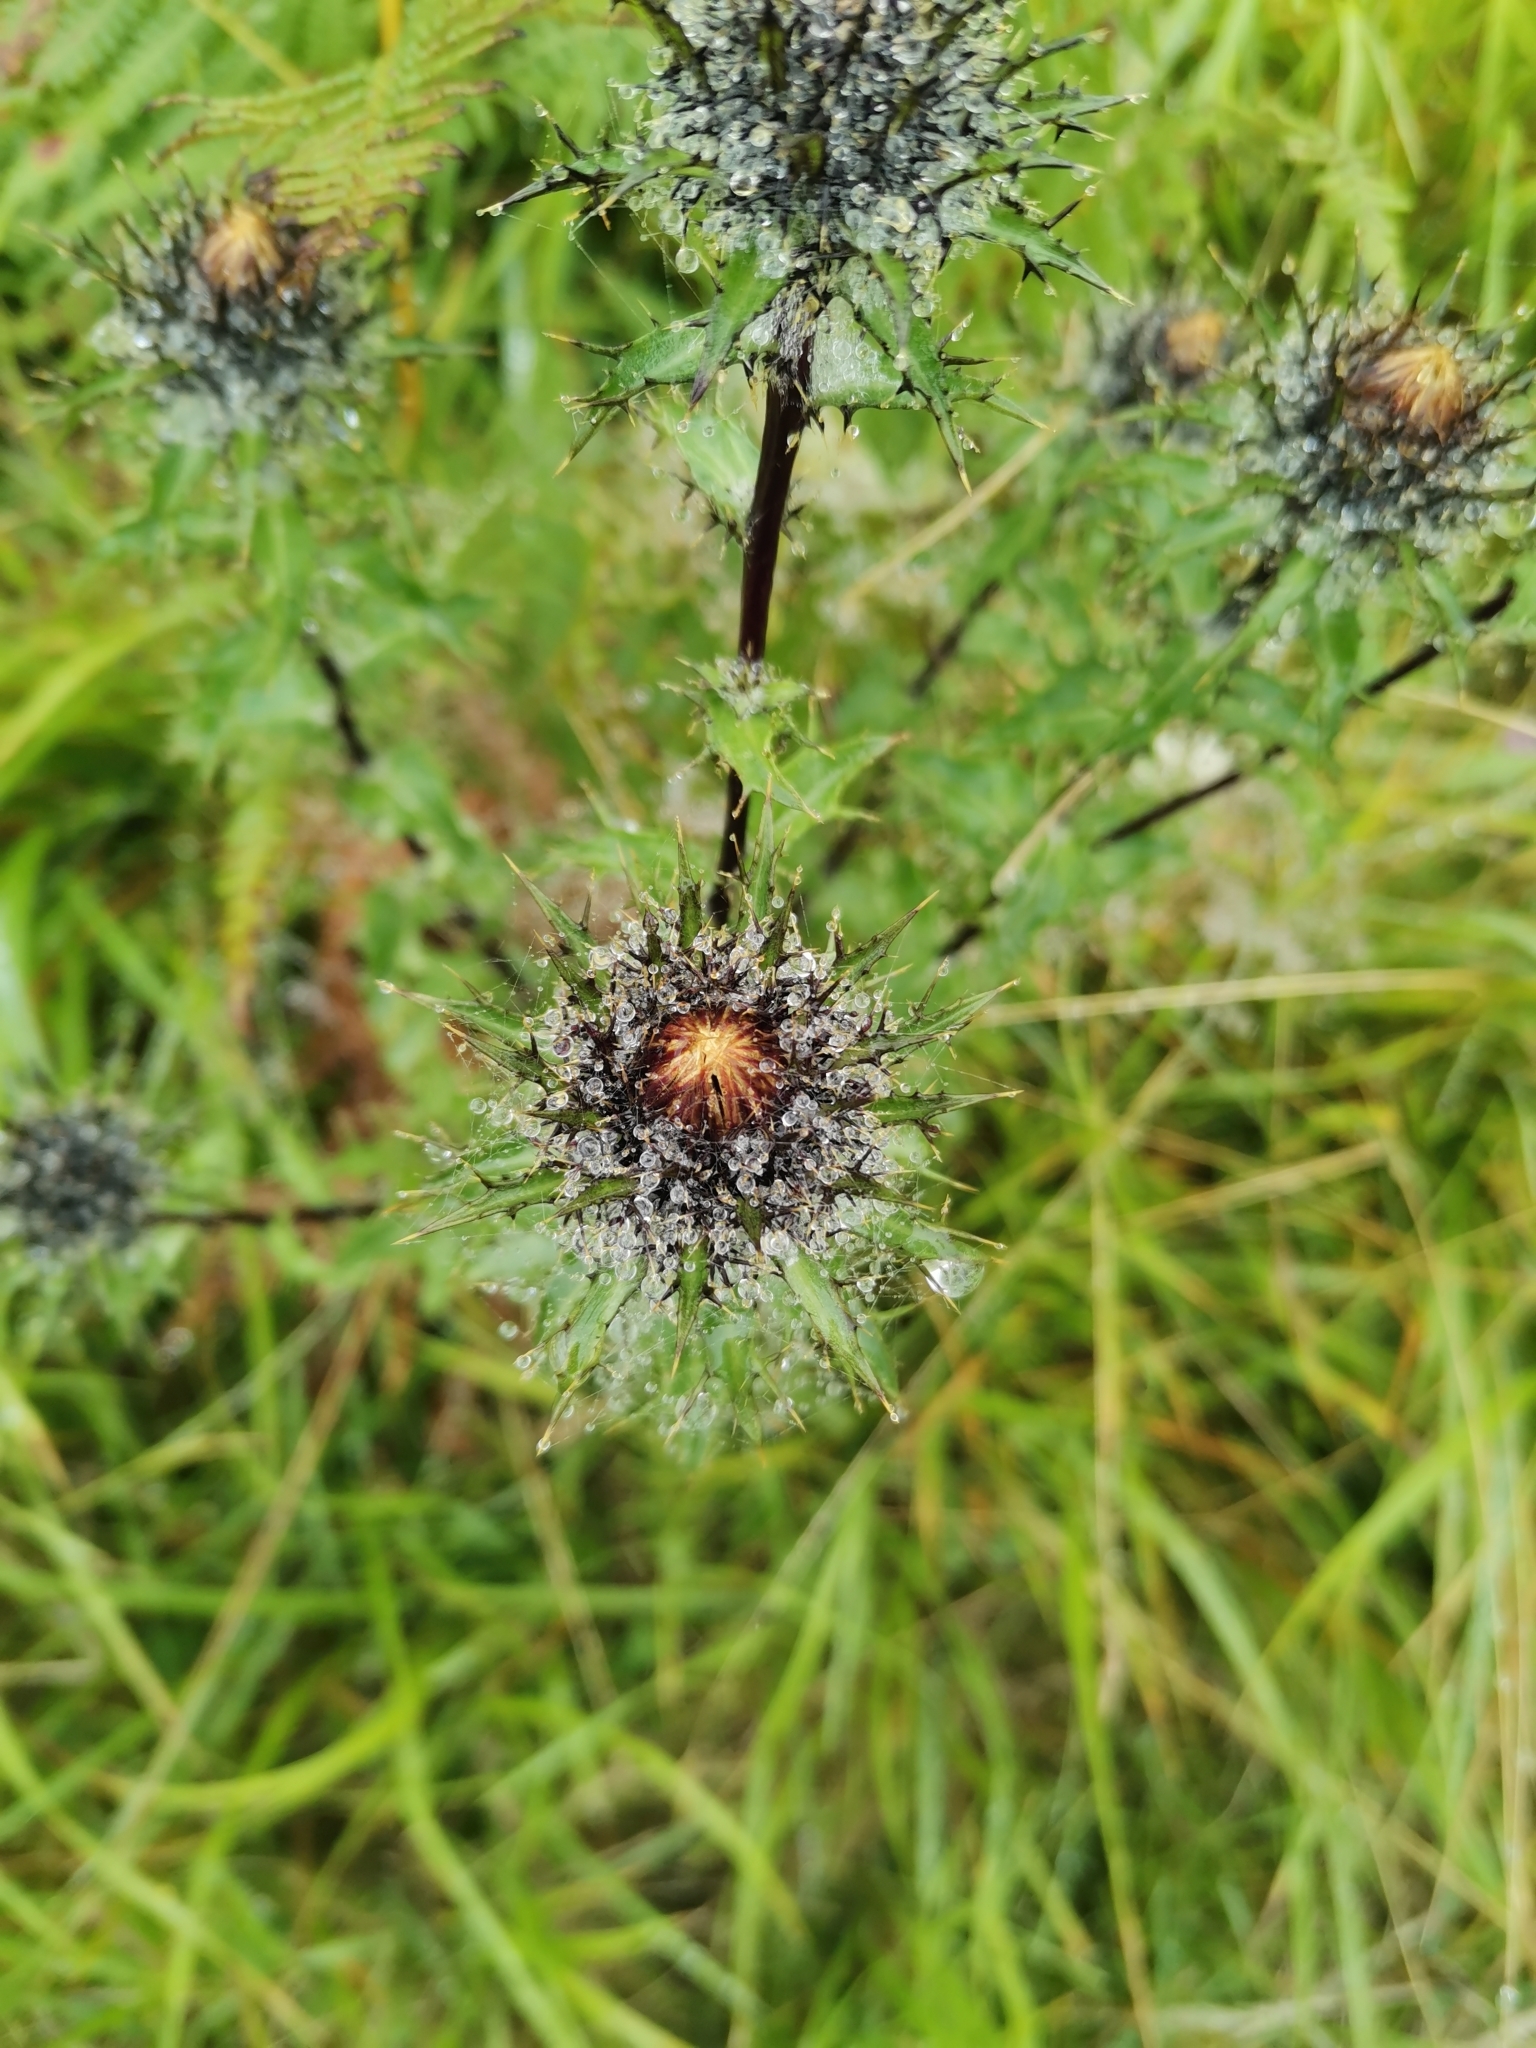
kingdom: Plantae
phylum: Tracheophyta
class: Magnoliopsida
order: Asterales
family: Asteraceae
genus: Carlina
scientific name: Carlina vulgaris
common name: Carline thistle
